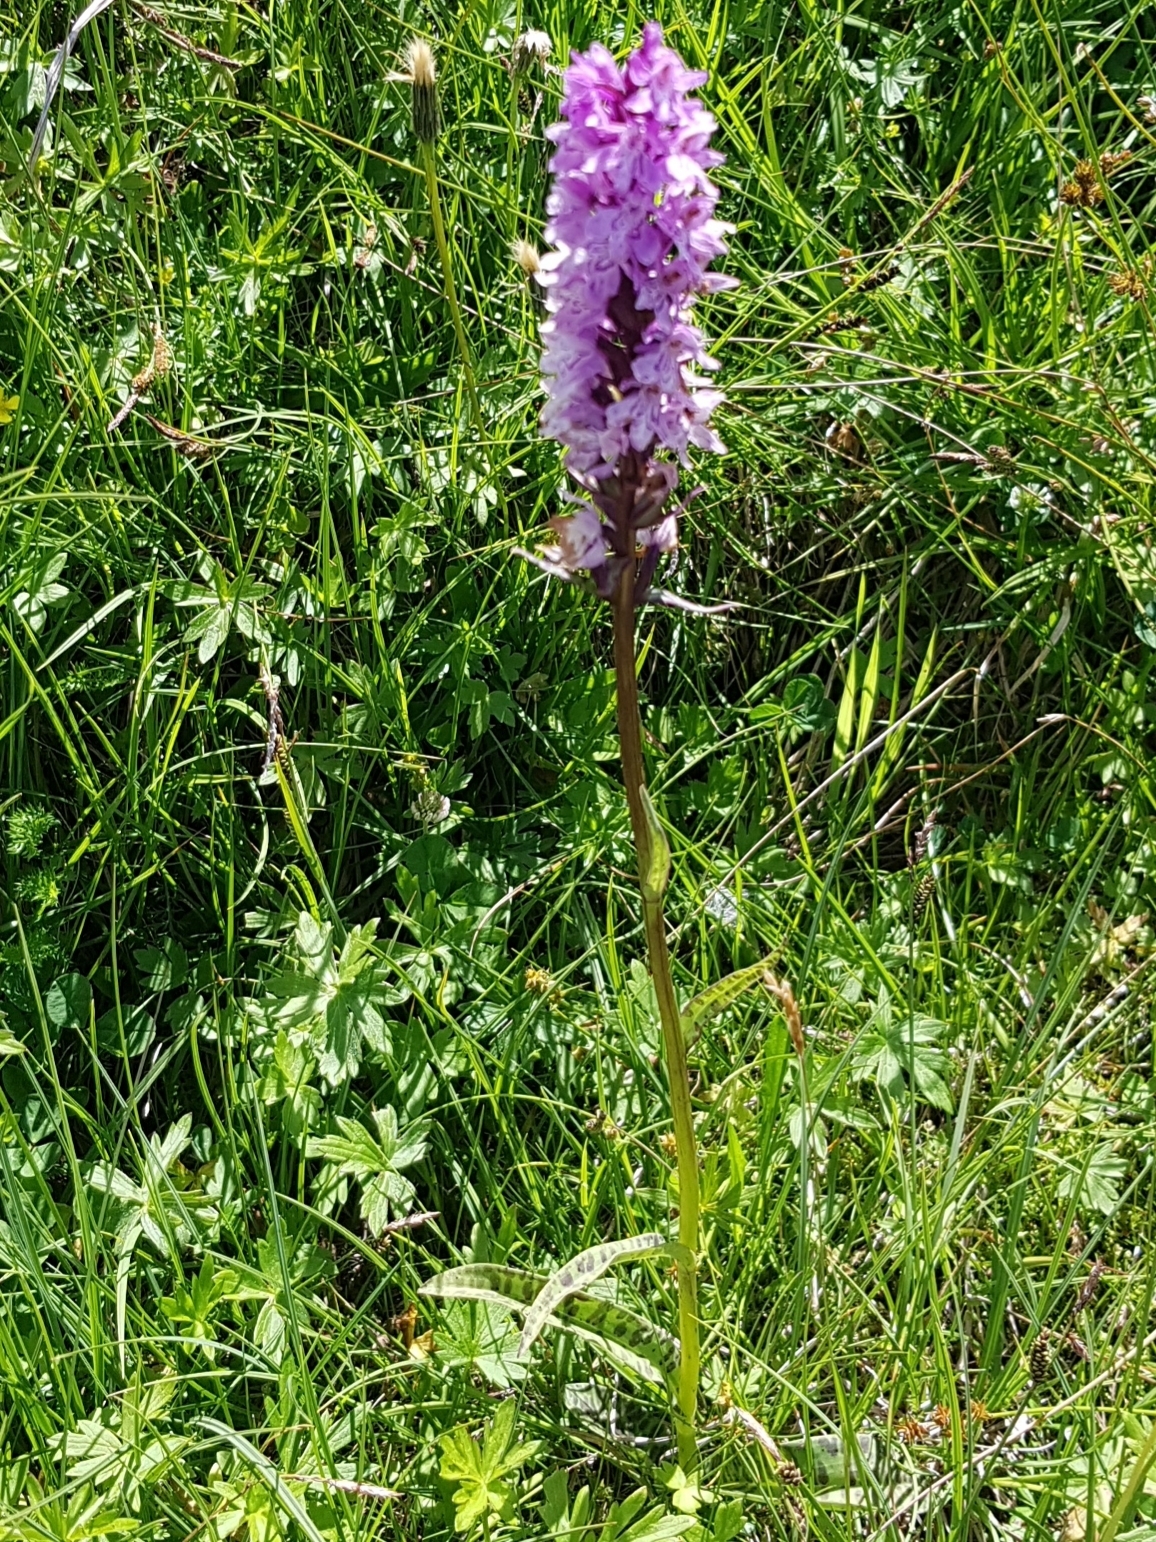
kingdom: Plantae
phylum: Tracheophyta
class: Liliopsida
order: Asparagales
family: Orchidaceae
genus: Dactylorhiza
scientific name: Dactylorhiza maculata
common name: Heath spotted-orchid
